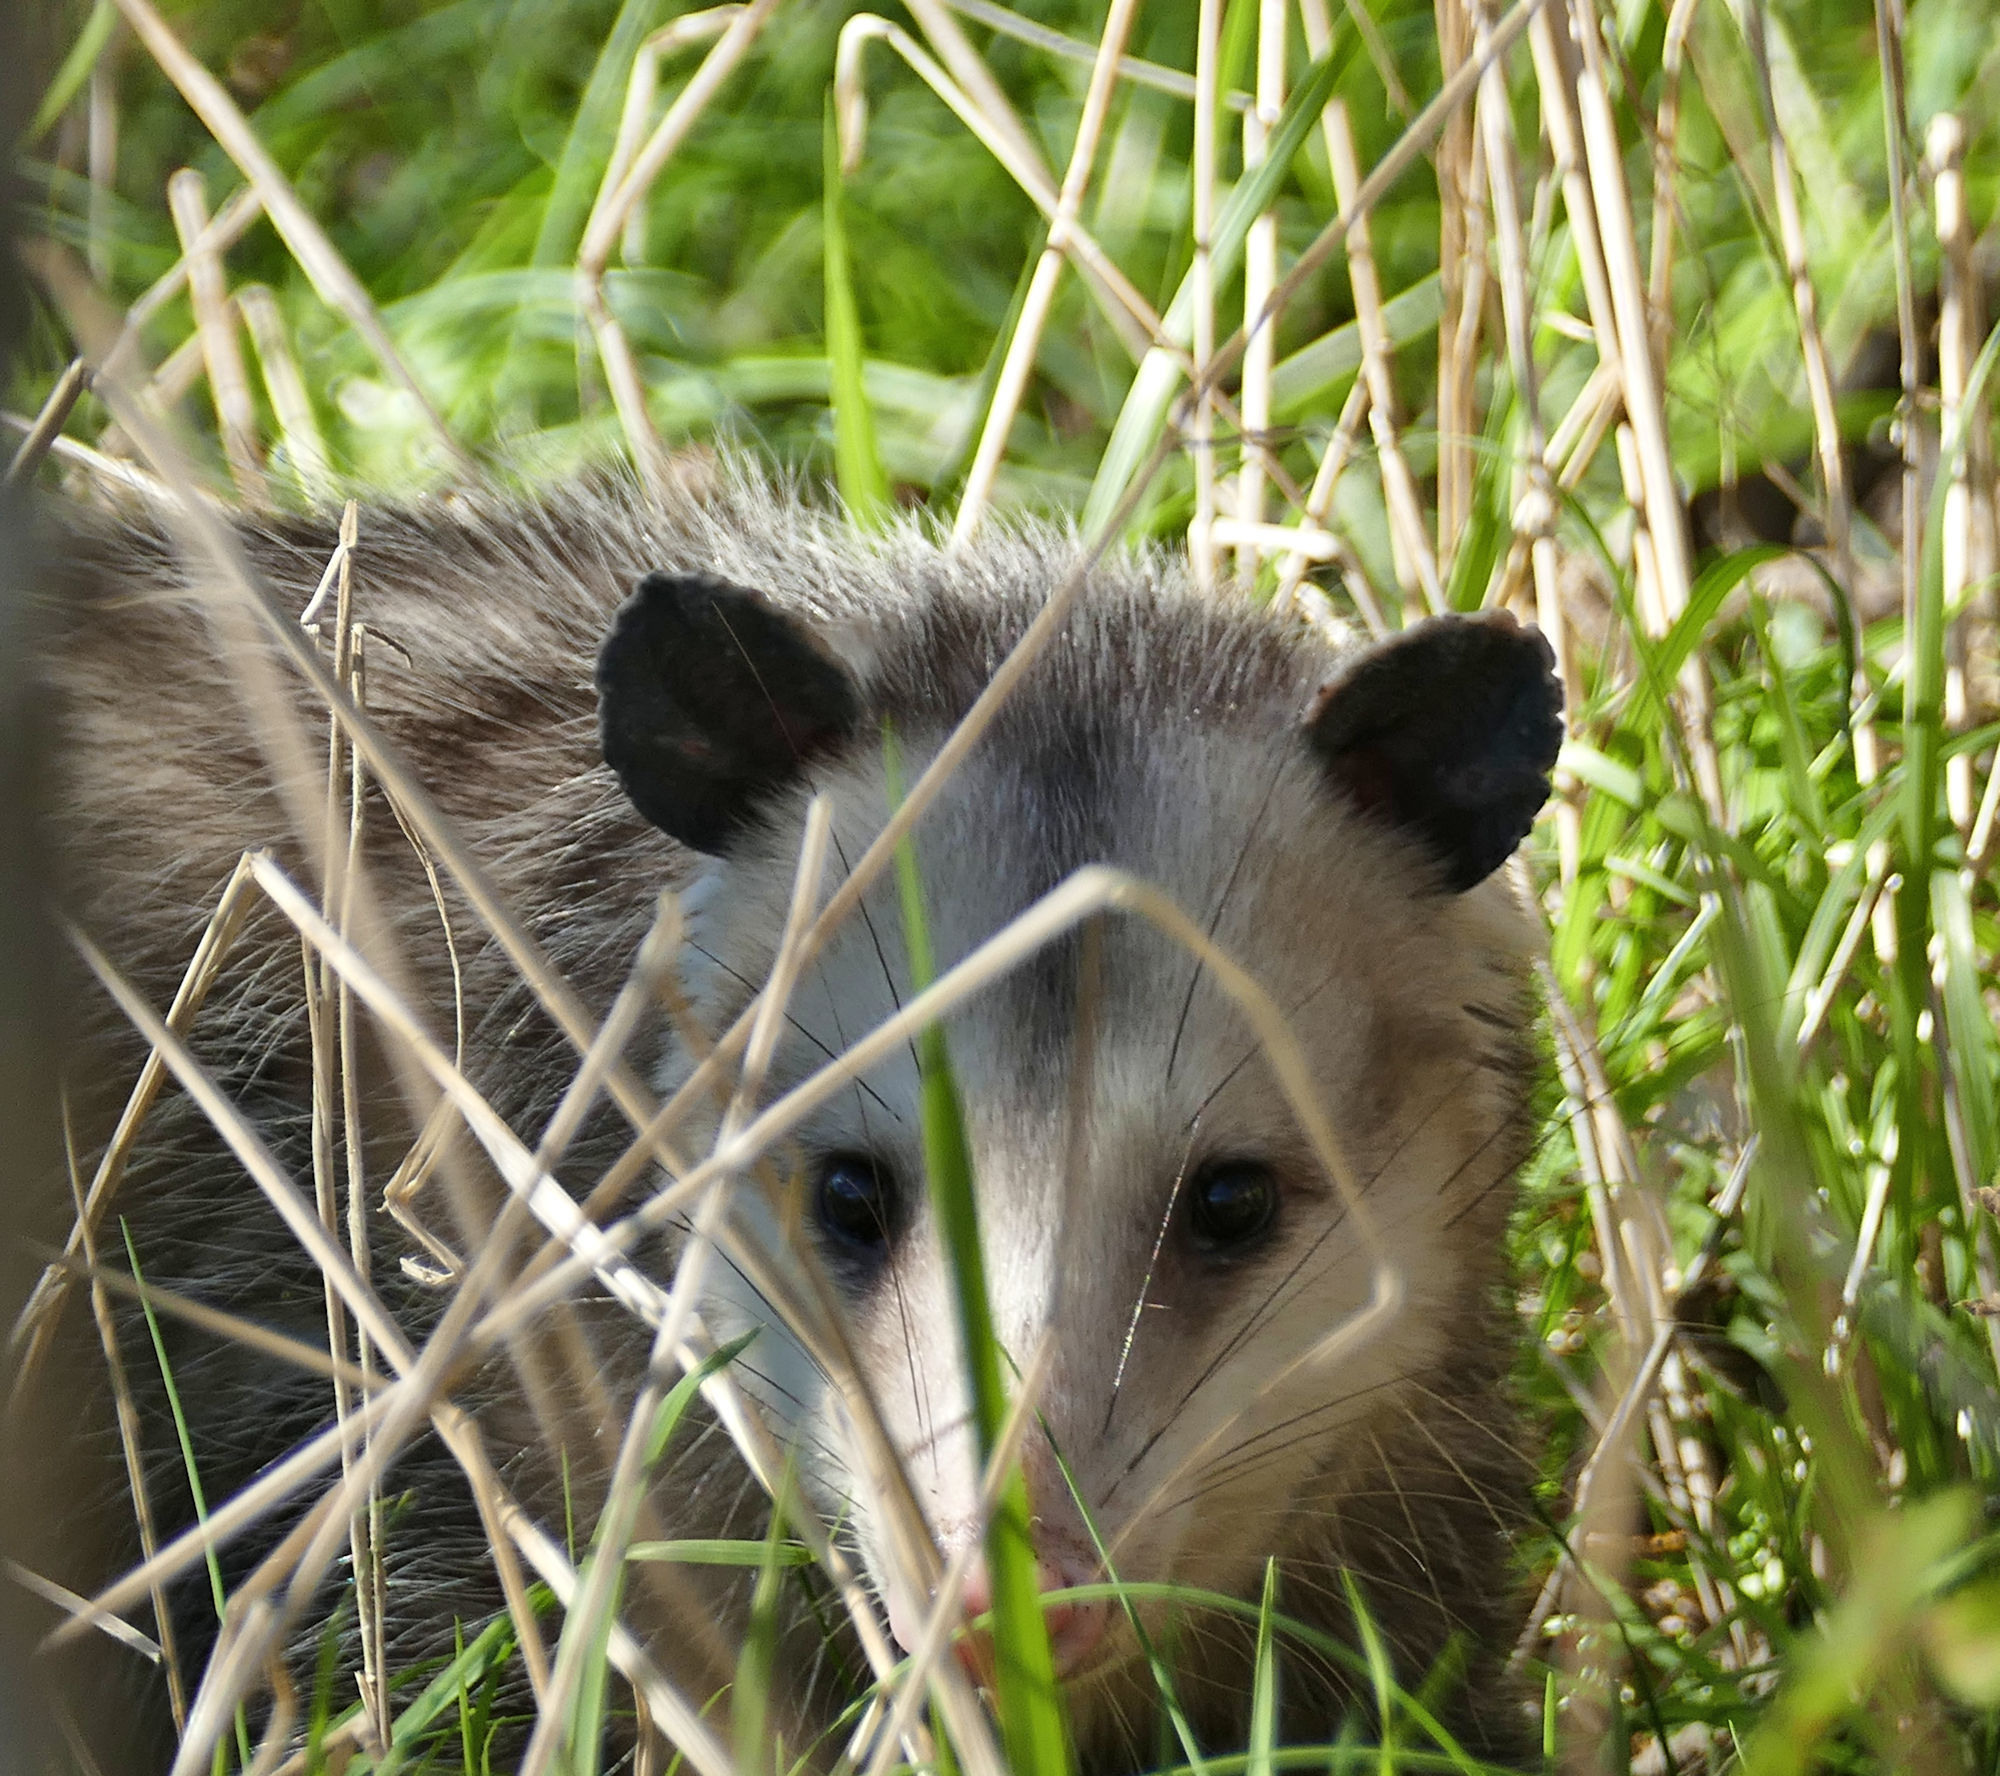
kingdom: Animalia
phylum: Chordata
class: Mammalia
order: Didelphimorphia
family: Didelphidae
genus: Didelphis
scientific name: Didelphis virginiana
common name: Virginia opossum
